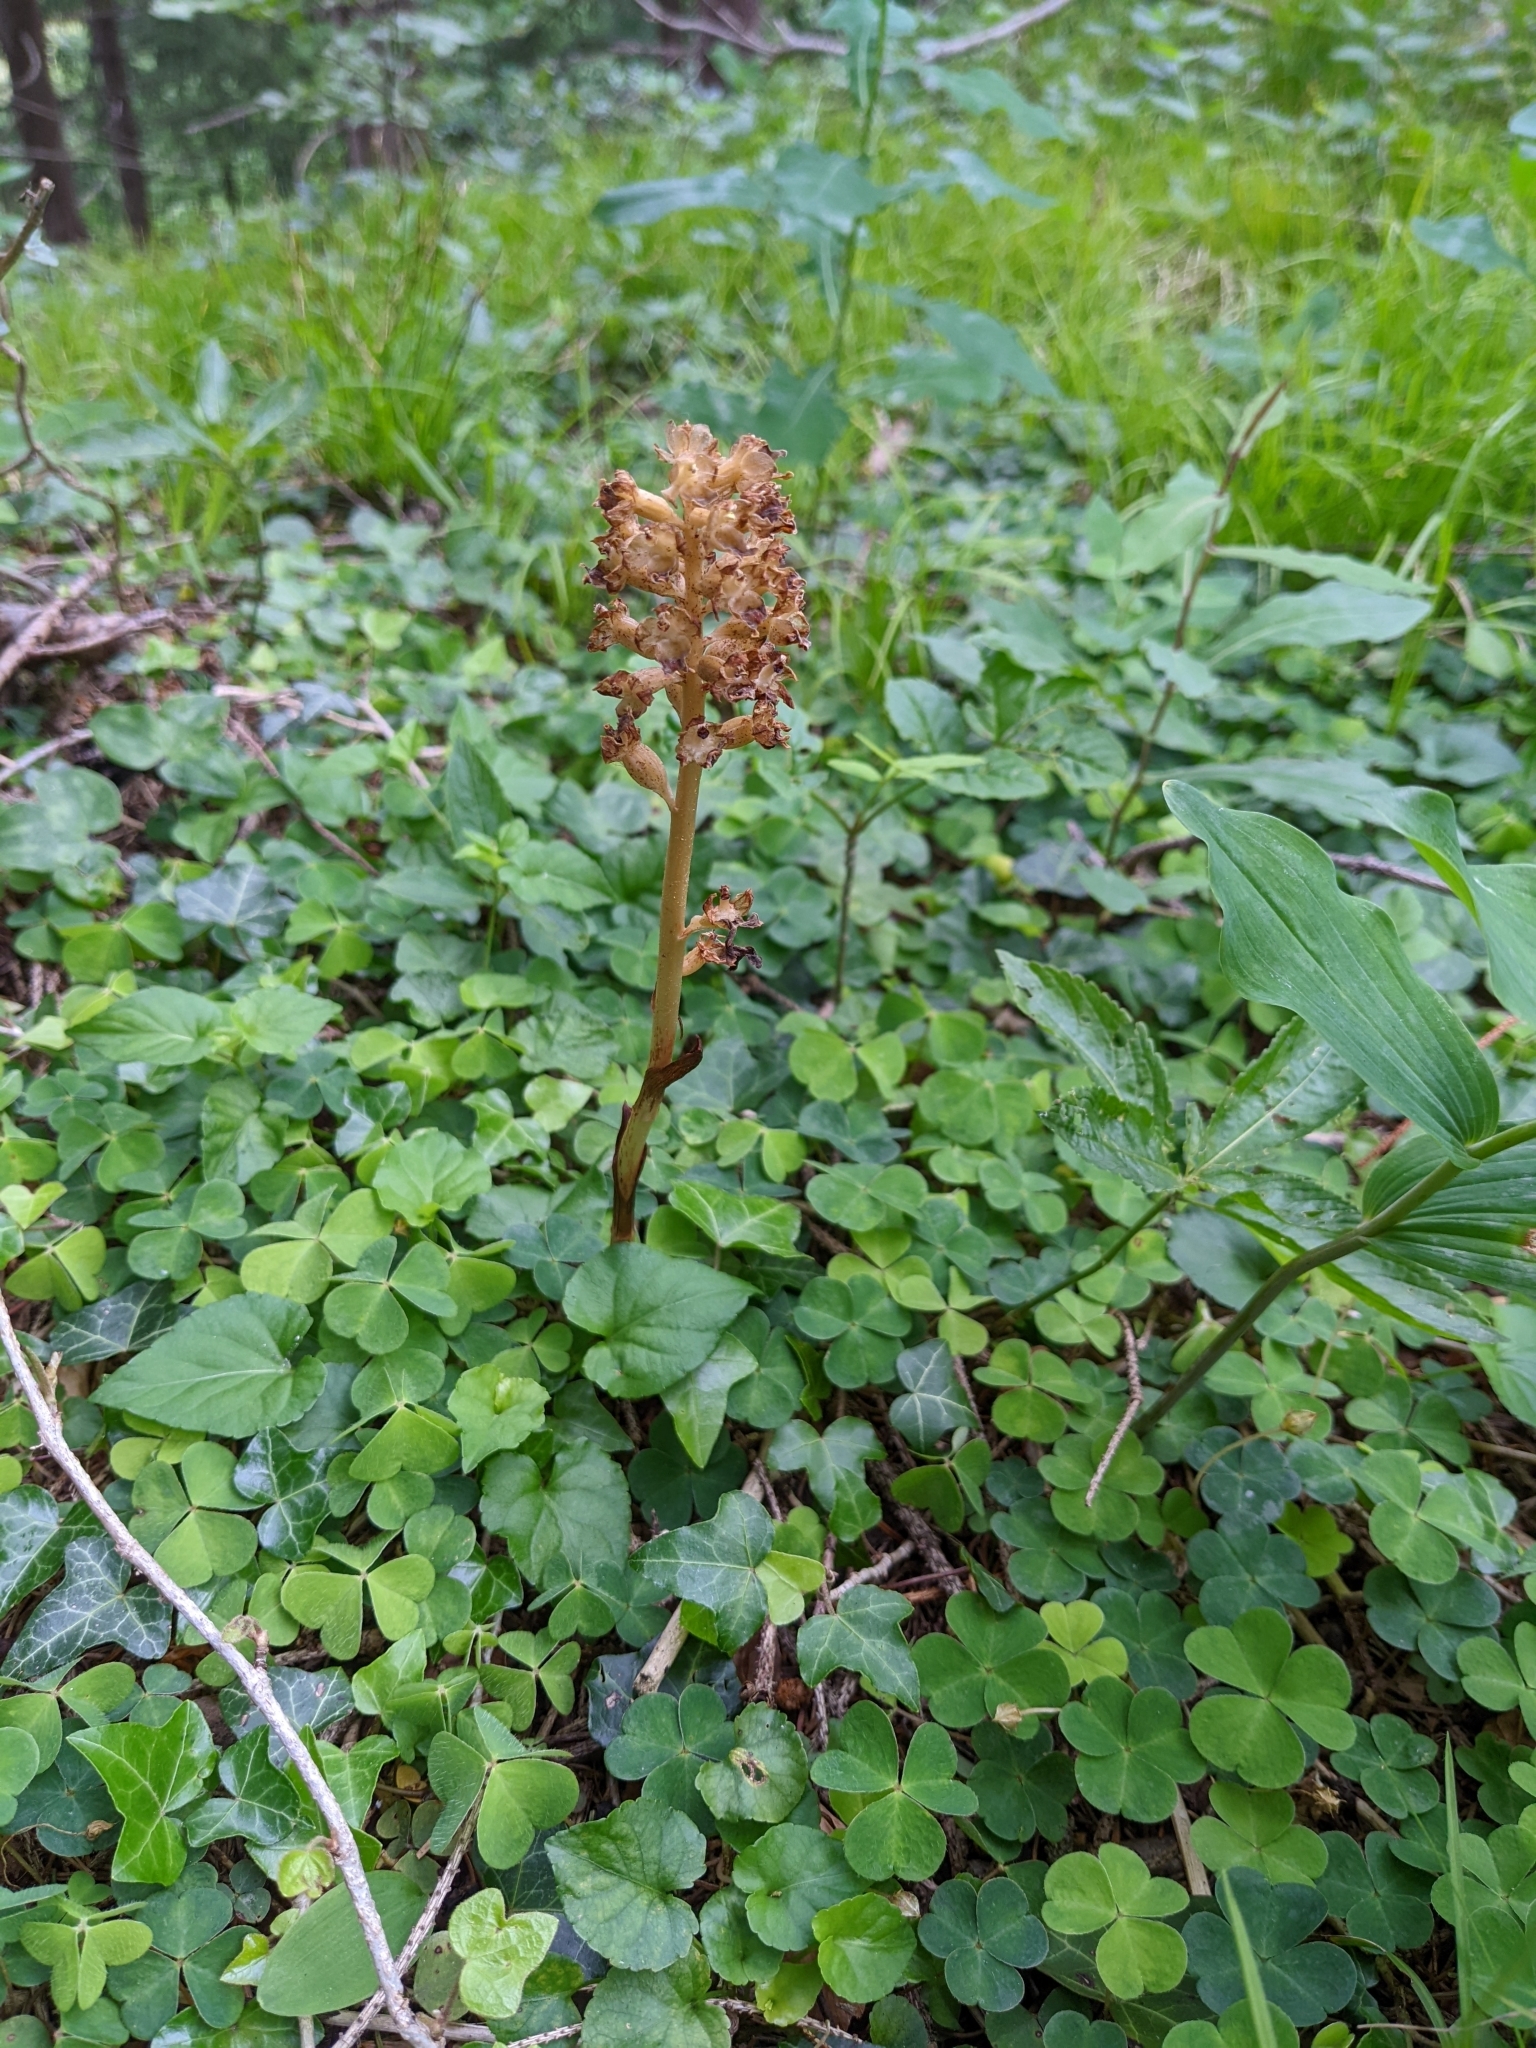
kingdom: Plantae
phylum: Tracheophyta
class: Liliopsida
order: Asparagales
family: Orchidaceae
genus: Neottia
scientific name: Neottia nidus-avis
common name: Bird's-nest orchid
